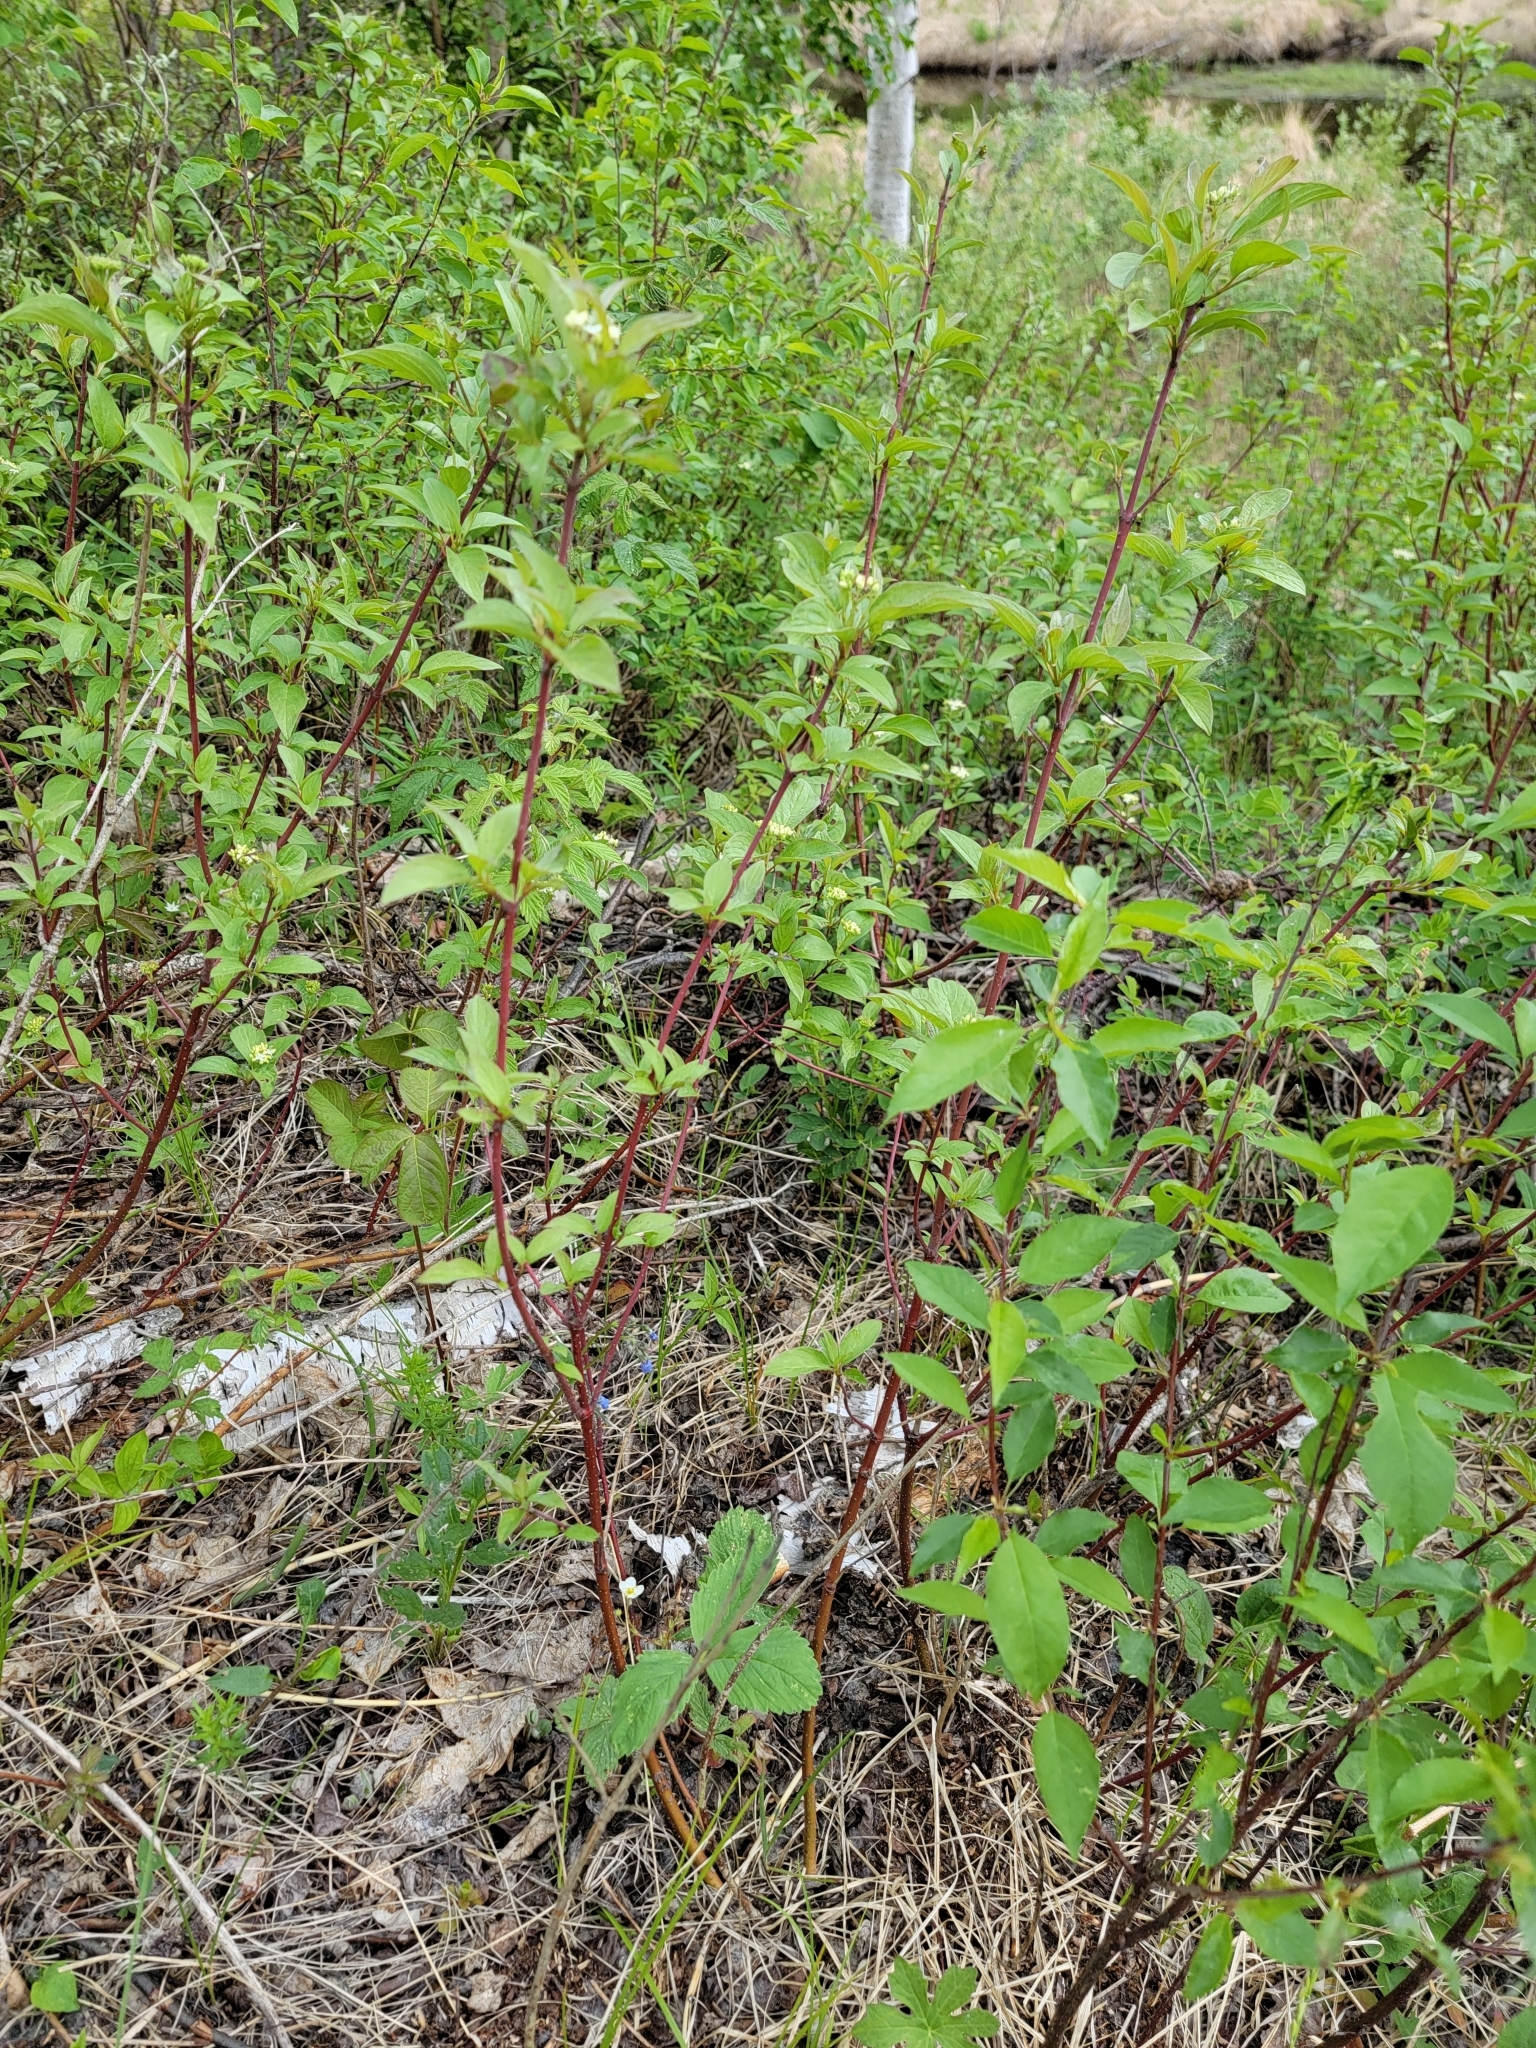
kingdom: Plantae
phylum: Tracheophyta
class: Magnoliopsida
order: Cornales
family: Cornaceae
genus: Cornus
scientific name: Cornus sericea
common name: Red-osier dogwood
